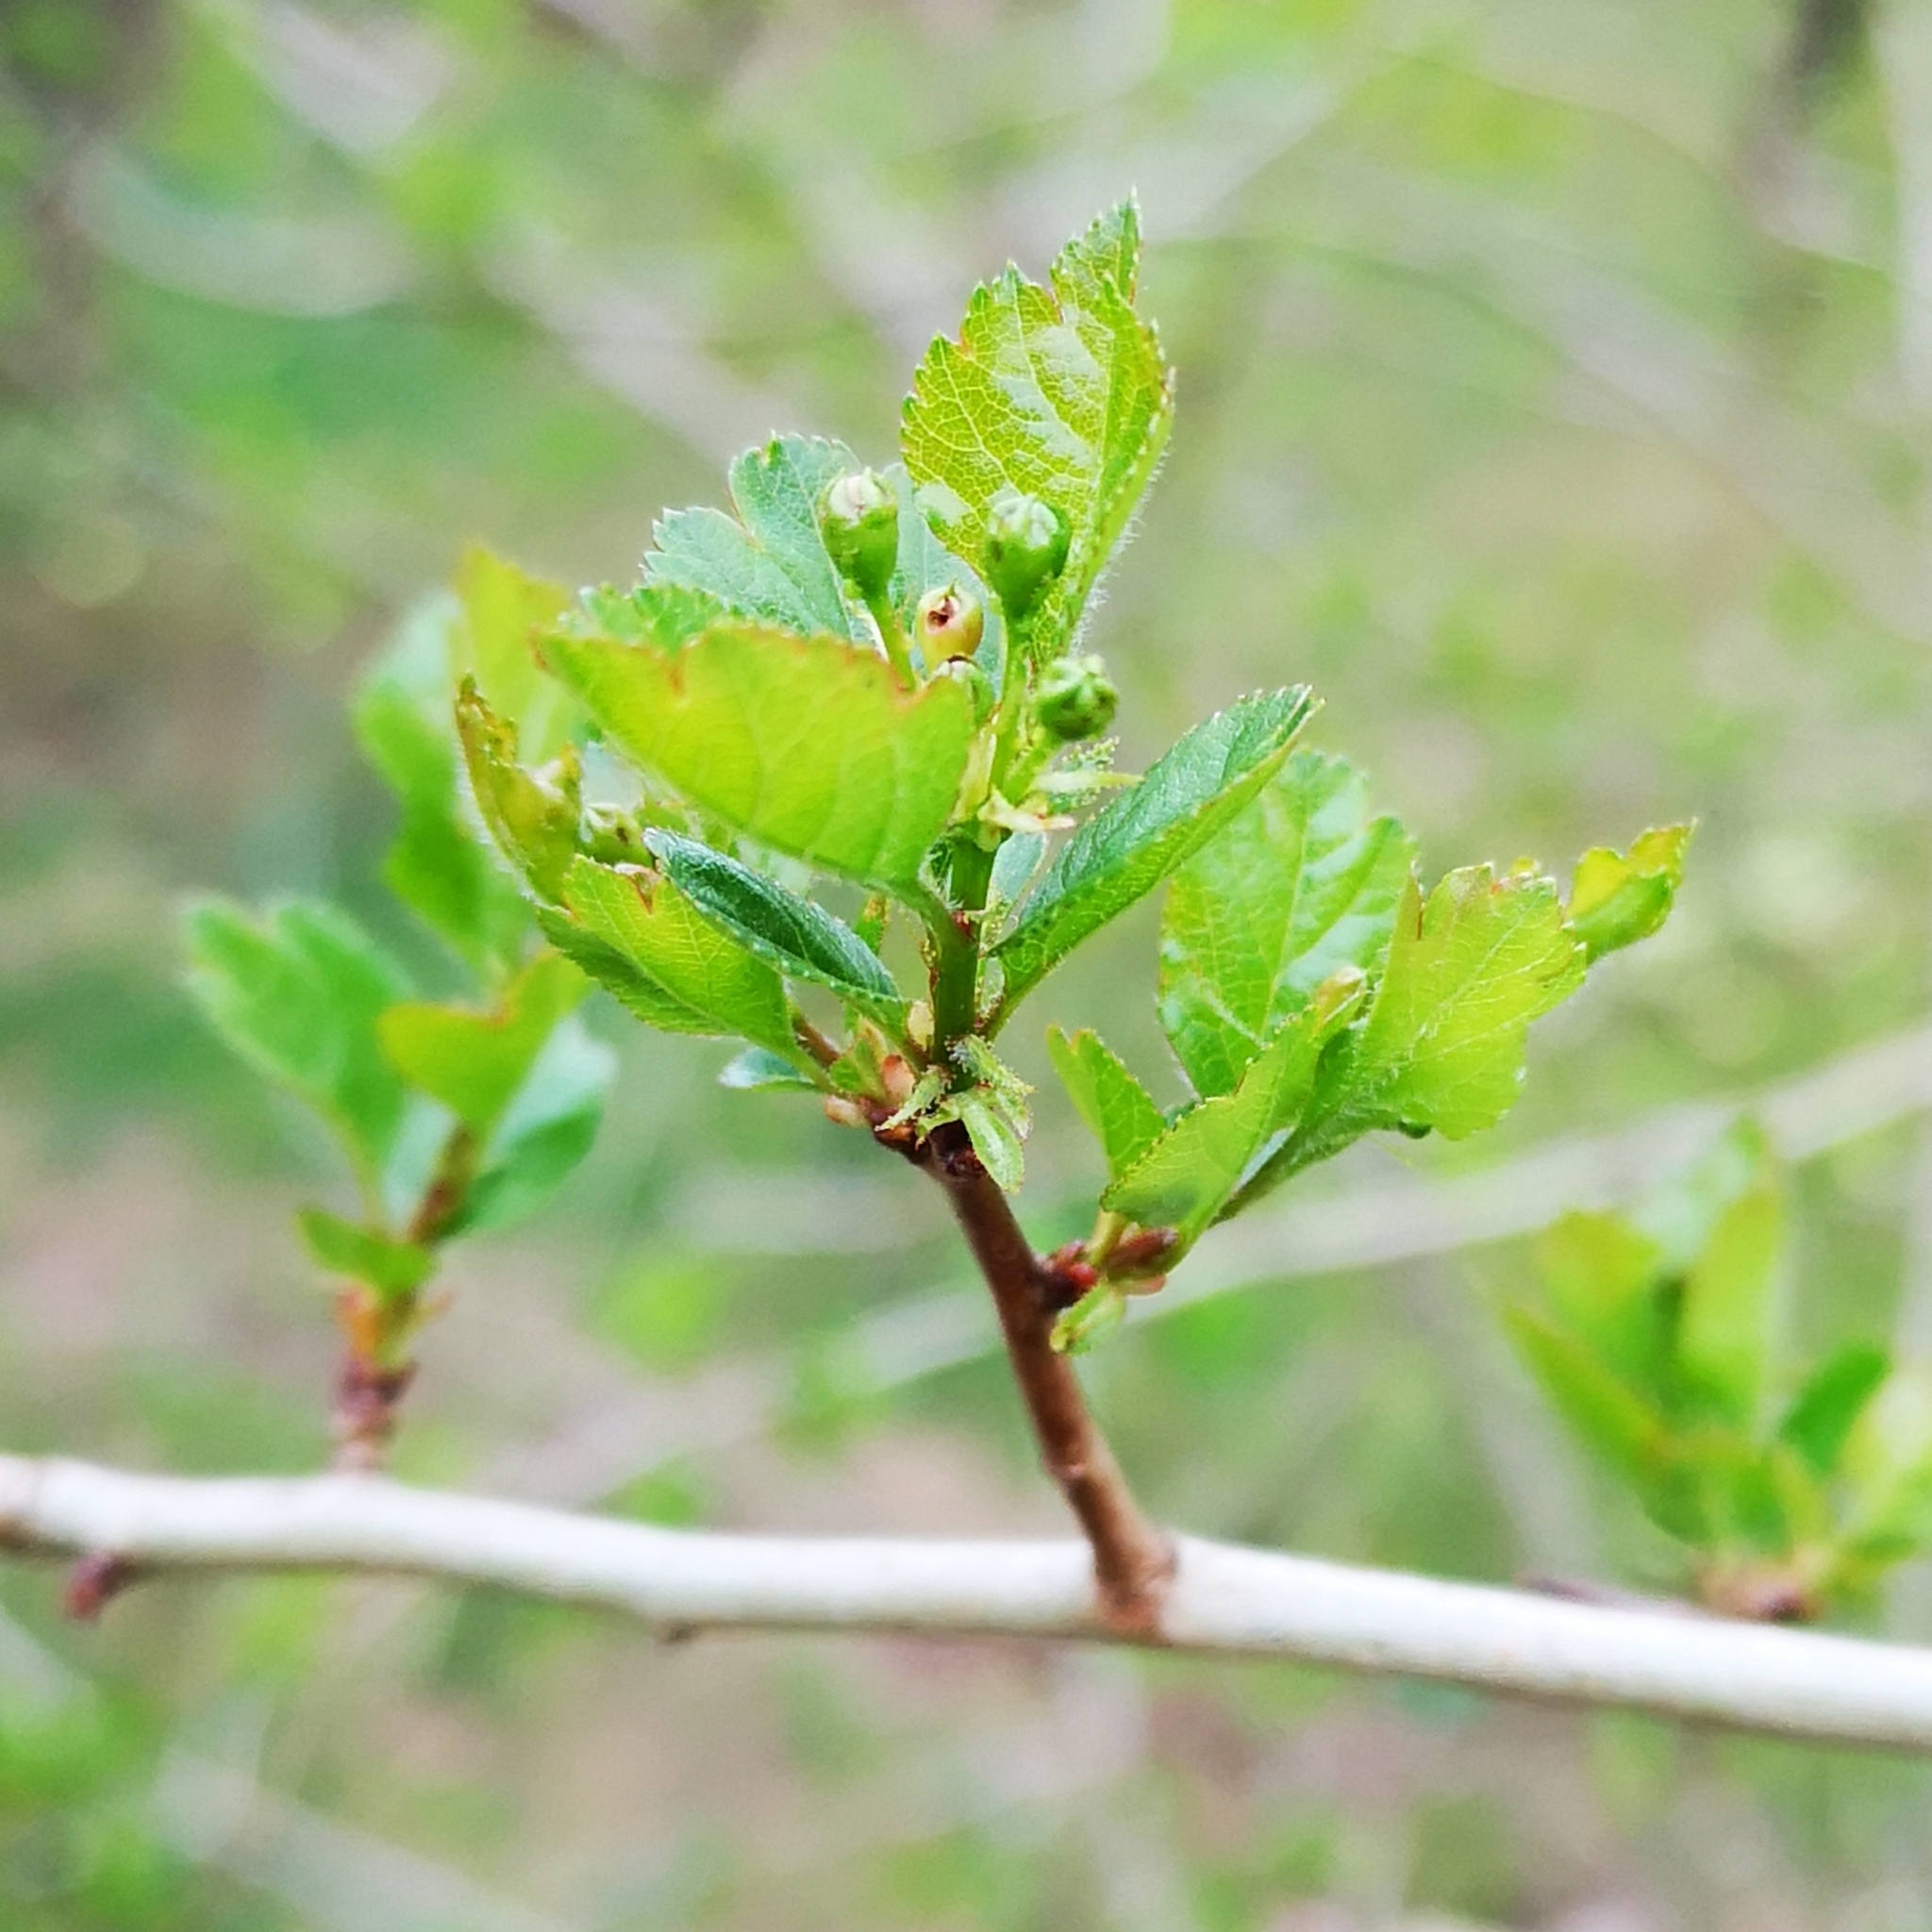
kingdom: Plantae
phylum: Tracheophyta
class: Magnoliopsida
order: Rosales
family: Rosaceae
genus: Crataegus
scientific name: Crataegus monogyna
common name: Hawthorn
